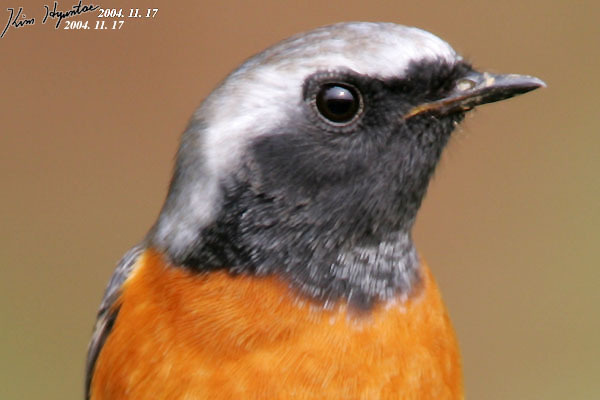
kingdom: Animalia
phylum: Chordata
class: Aves
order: Passeriformes
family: Muscicapidae
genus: Phoenicurus
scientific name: Phoenicurus auroreus
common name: Daurian redstart
